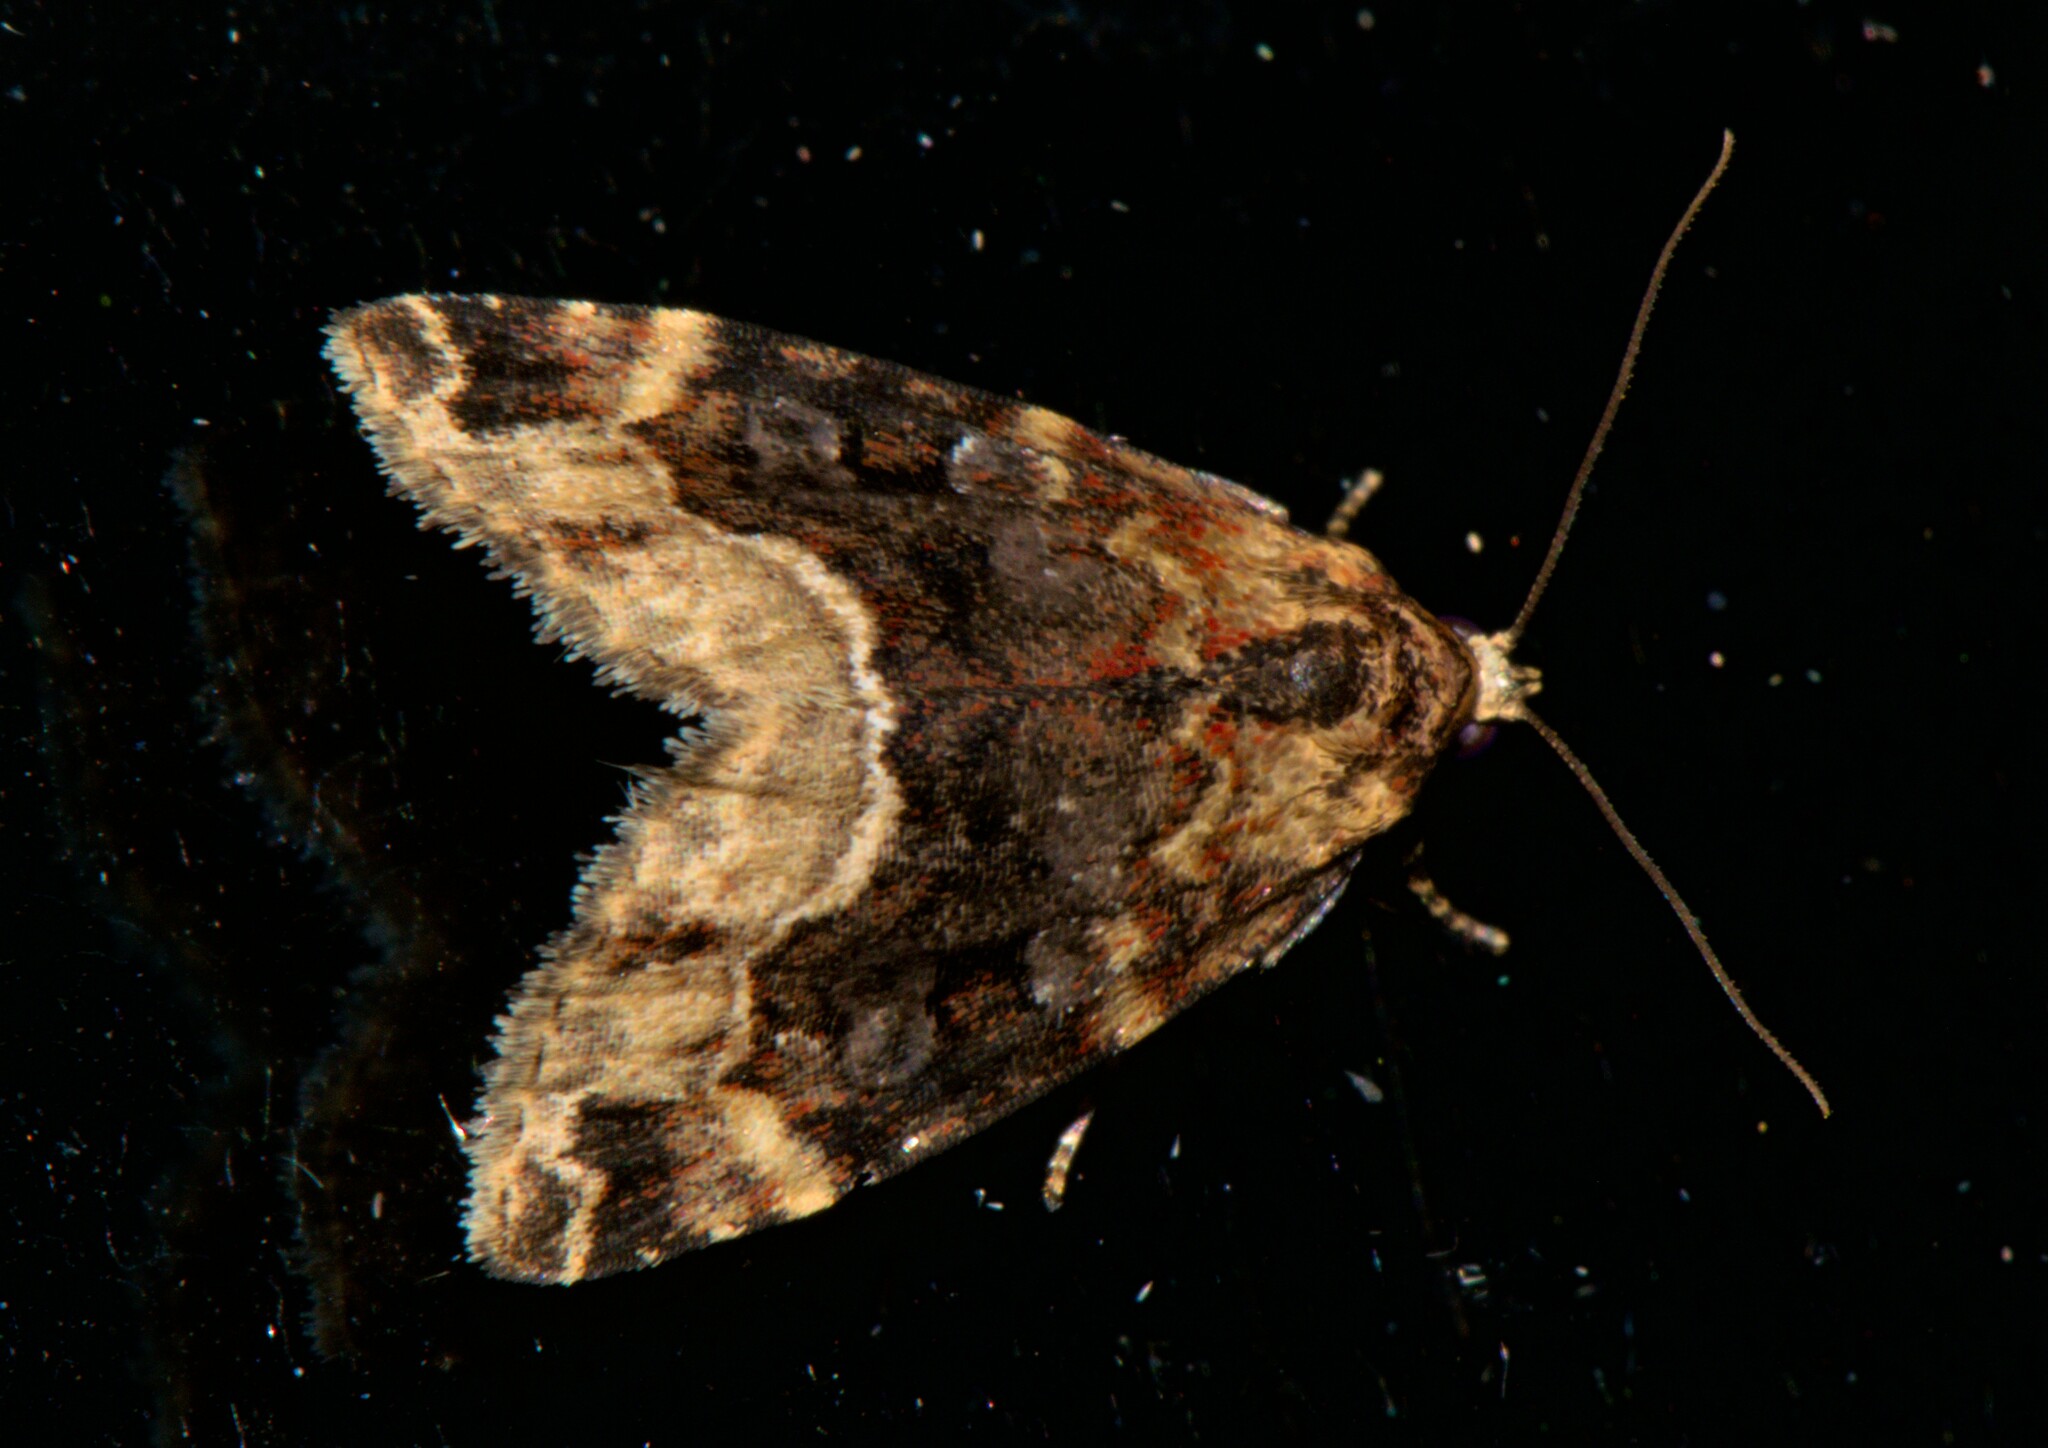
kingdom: Animalia
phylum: Arthropoda
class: Insecta
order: Lepidoptera
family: Erebidae
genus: Koyaga
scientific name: Koyaga
